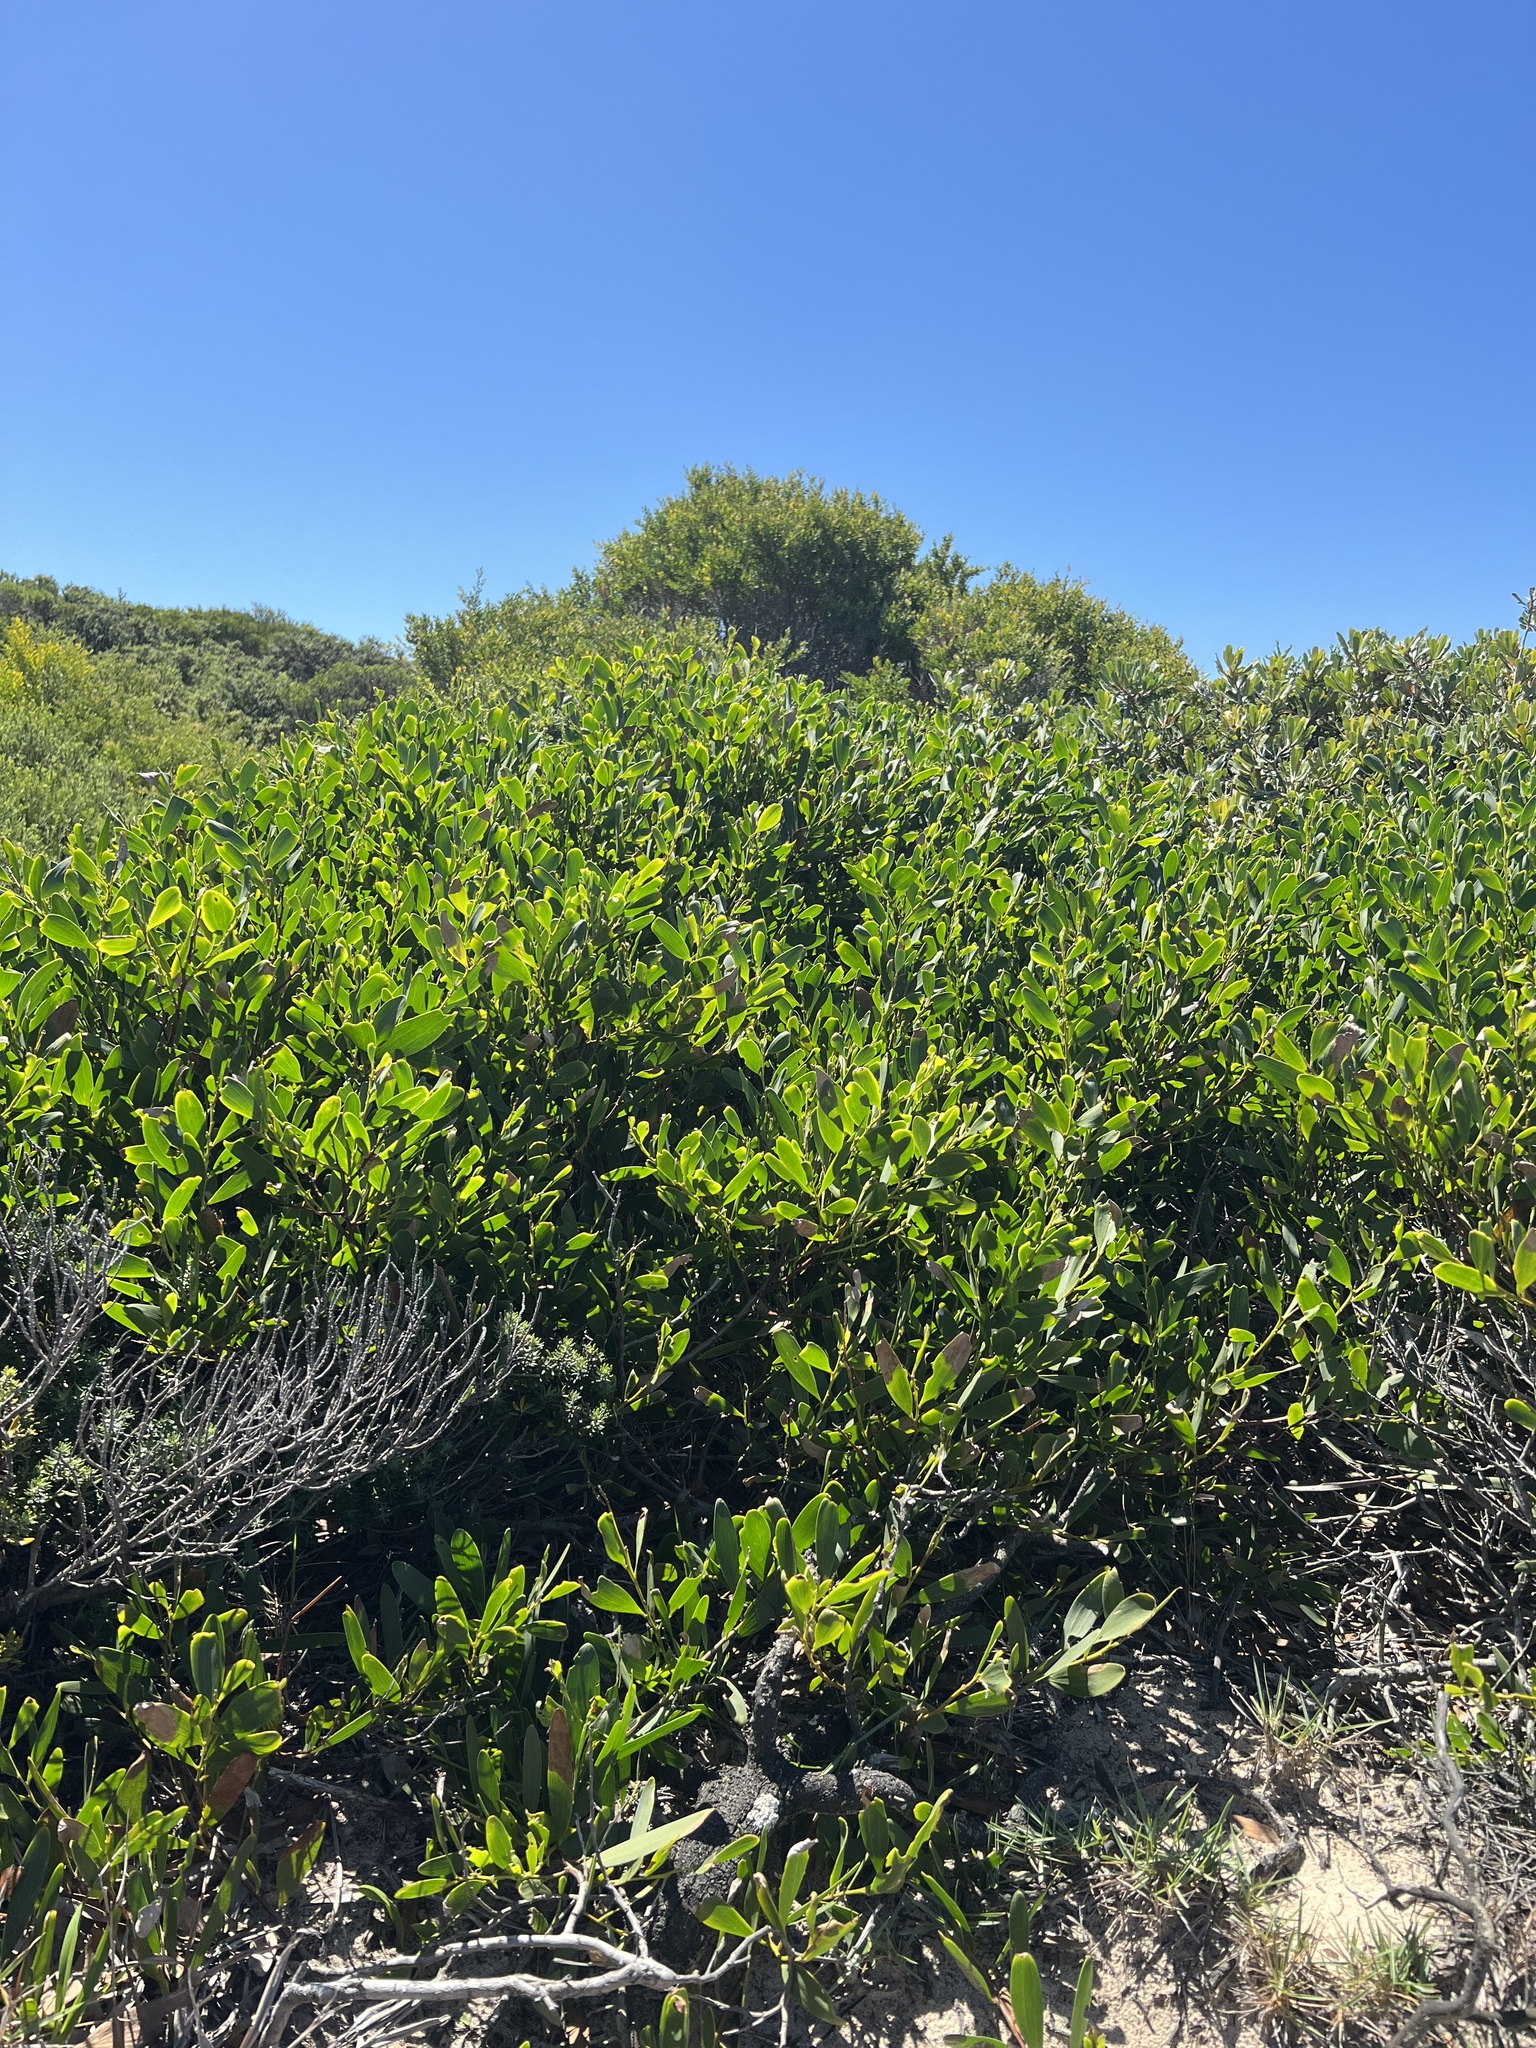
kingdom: Plantae
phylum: Tracheophyta
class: Magnoliopsida
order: Fabales
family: Fabaceae
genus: Acacia
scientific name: Acacia longifolia
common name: Sydney golden wattle
